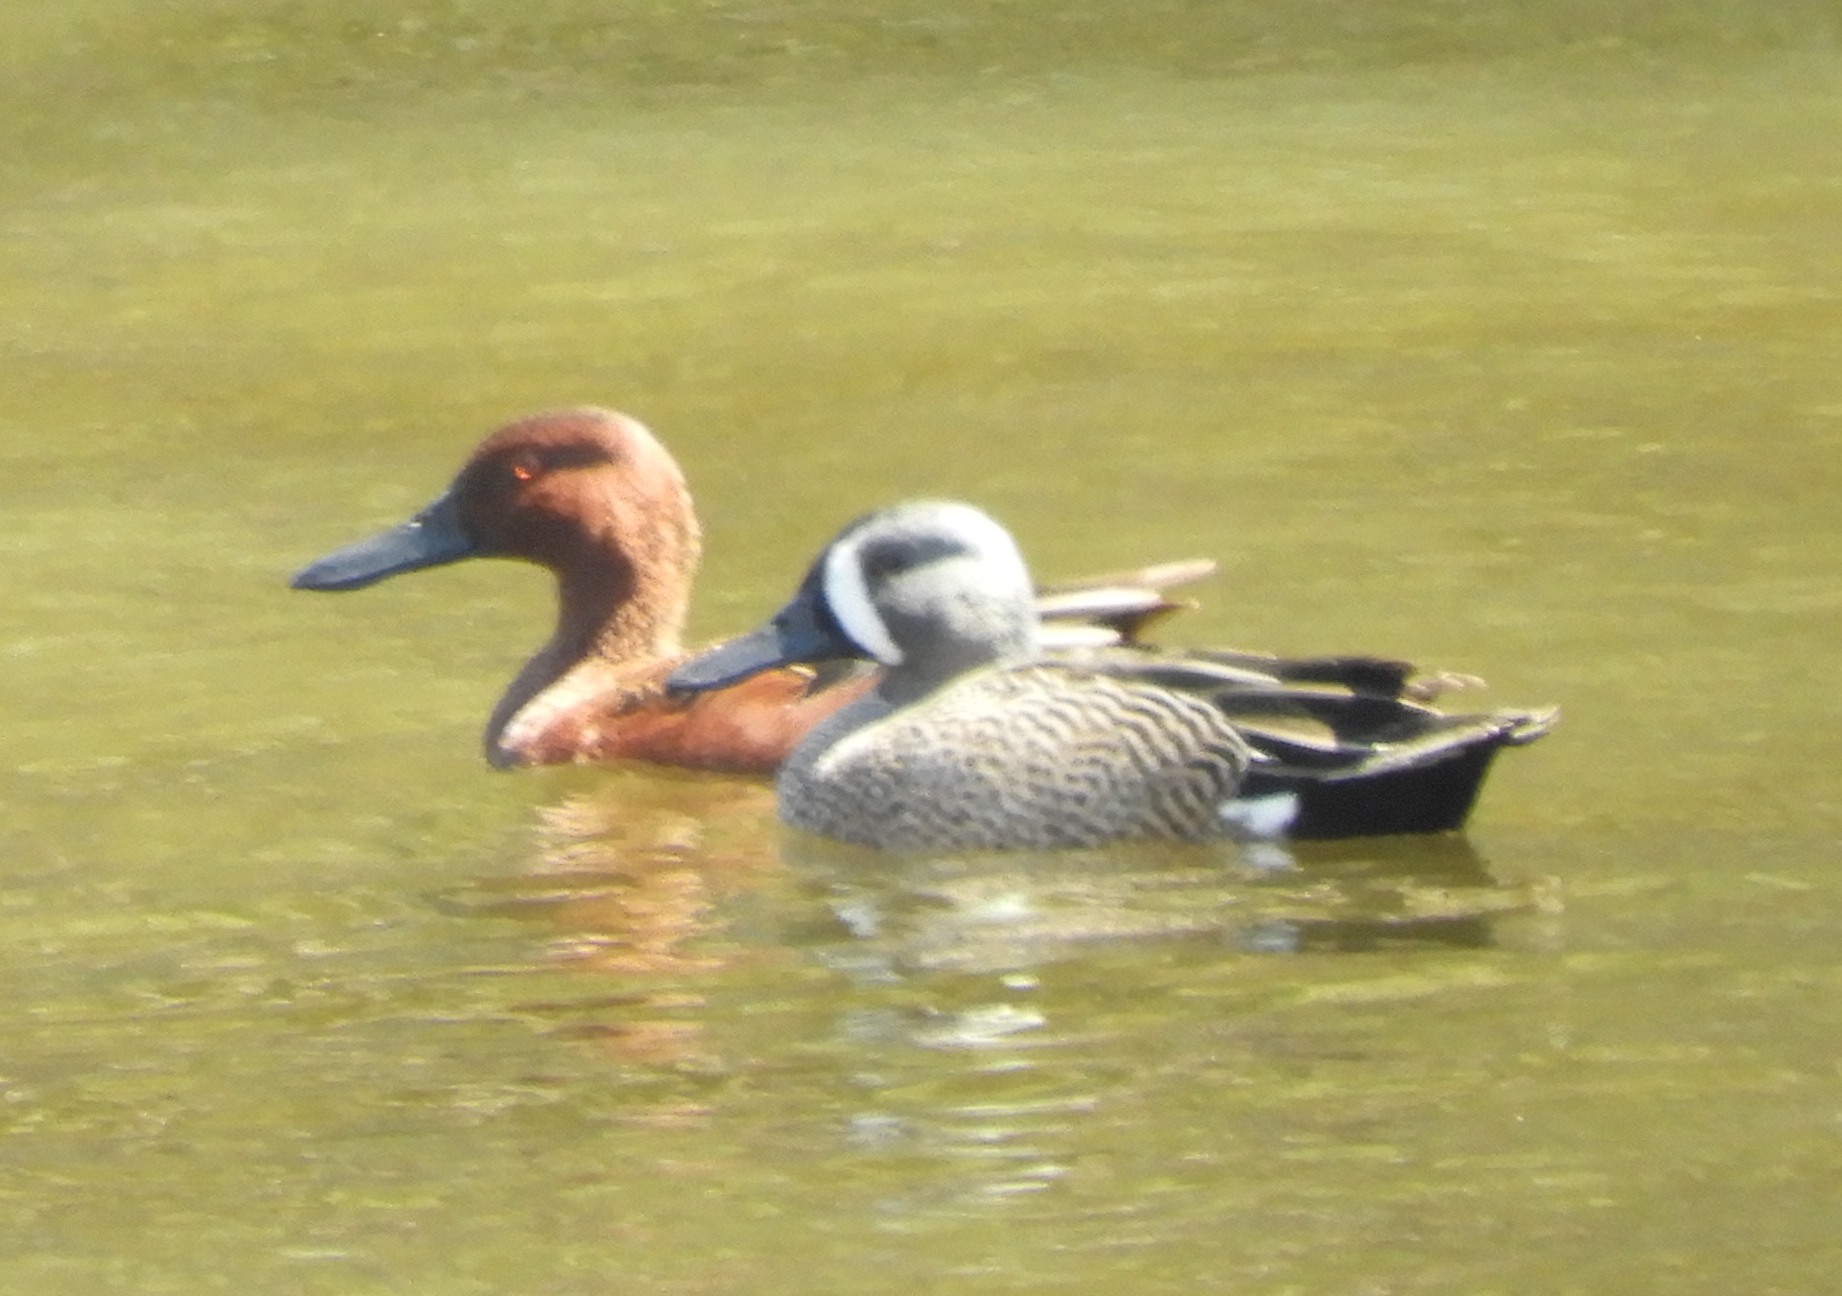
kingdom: Animalia
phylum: Chordata
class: Aves
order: Anseriformes
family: Anatidae
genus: Spatula
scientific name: Spatula cyanoptera
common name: Cinnamon teal
